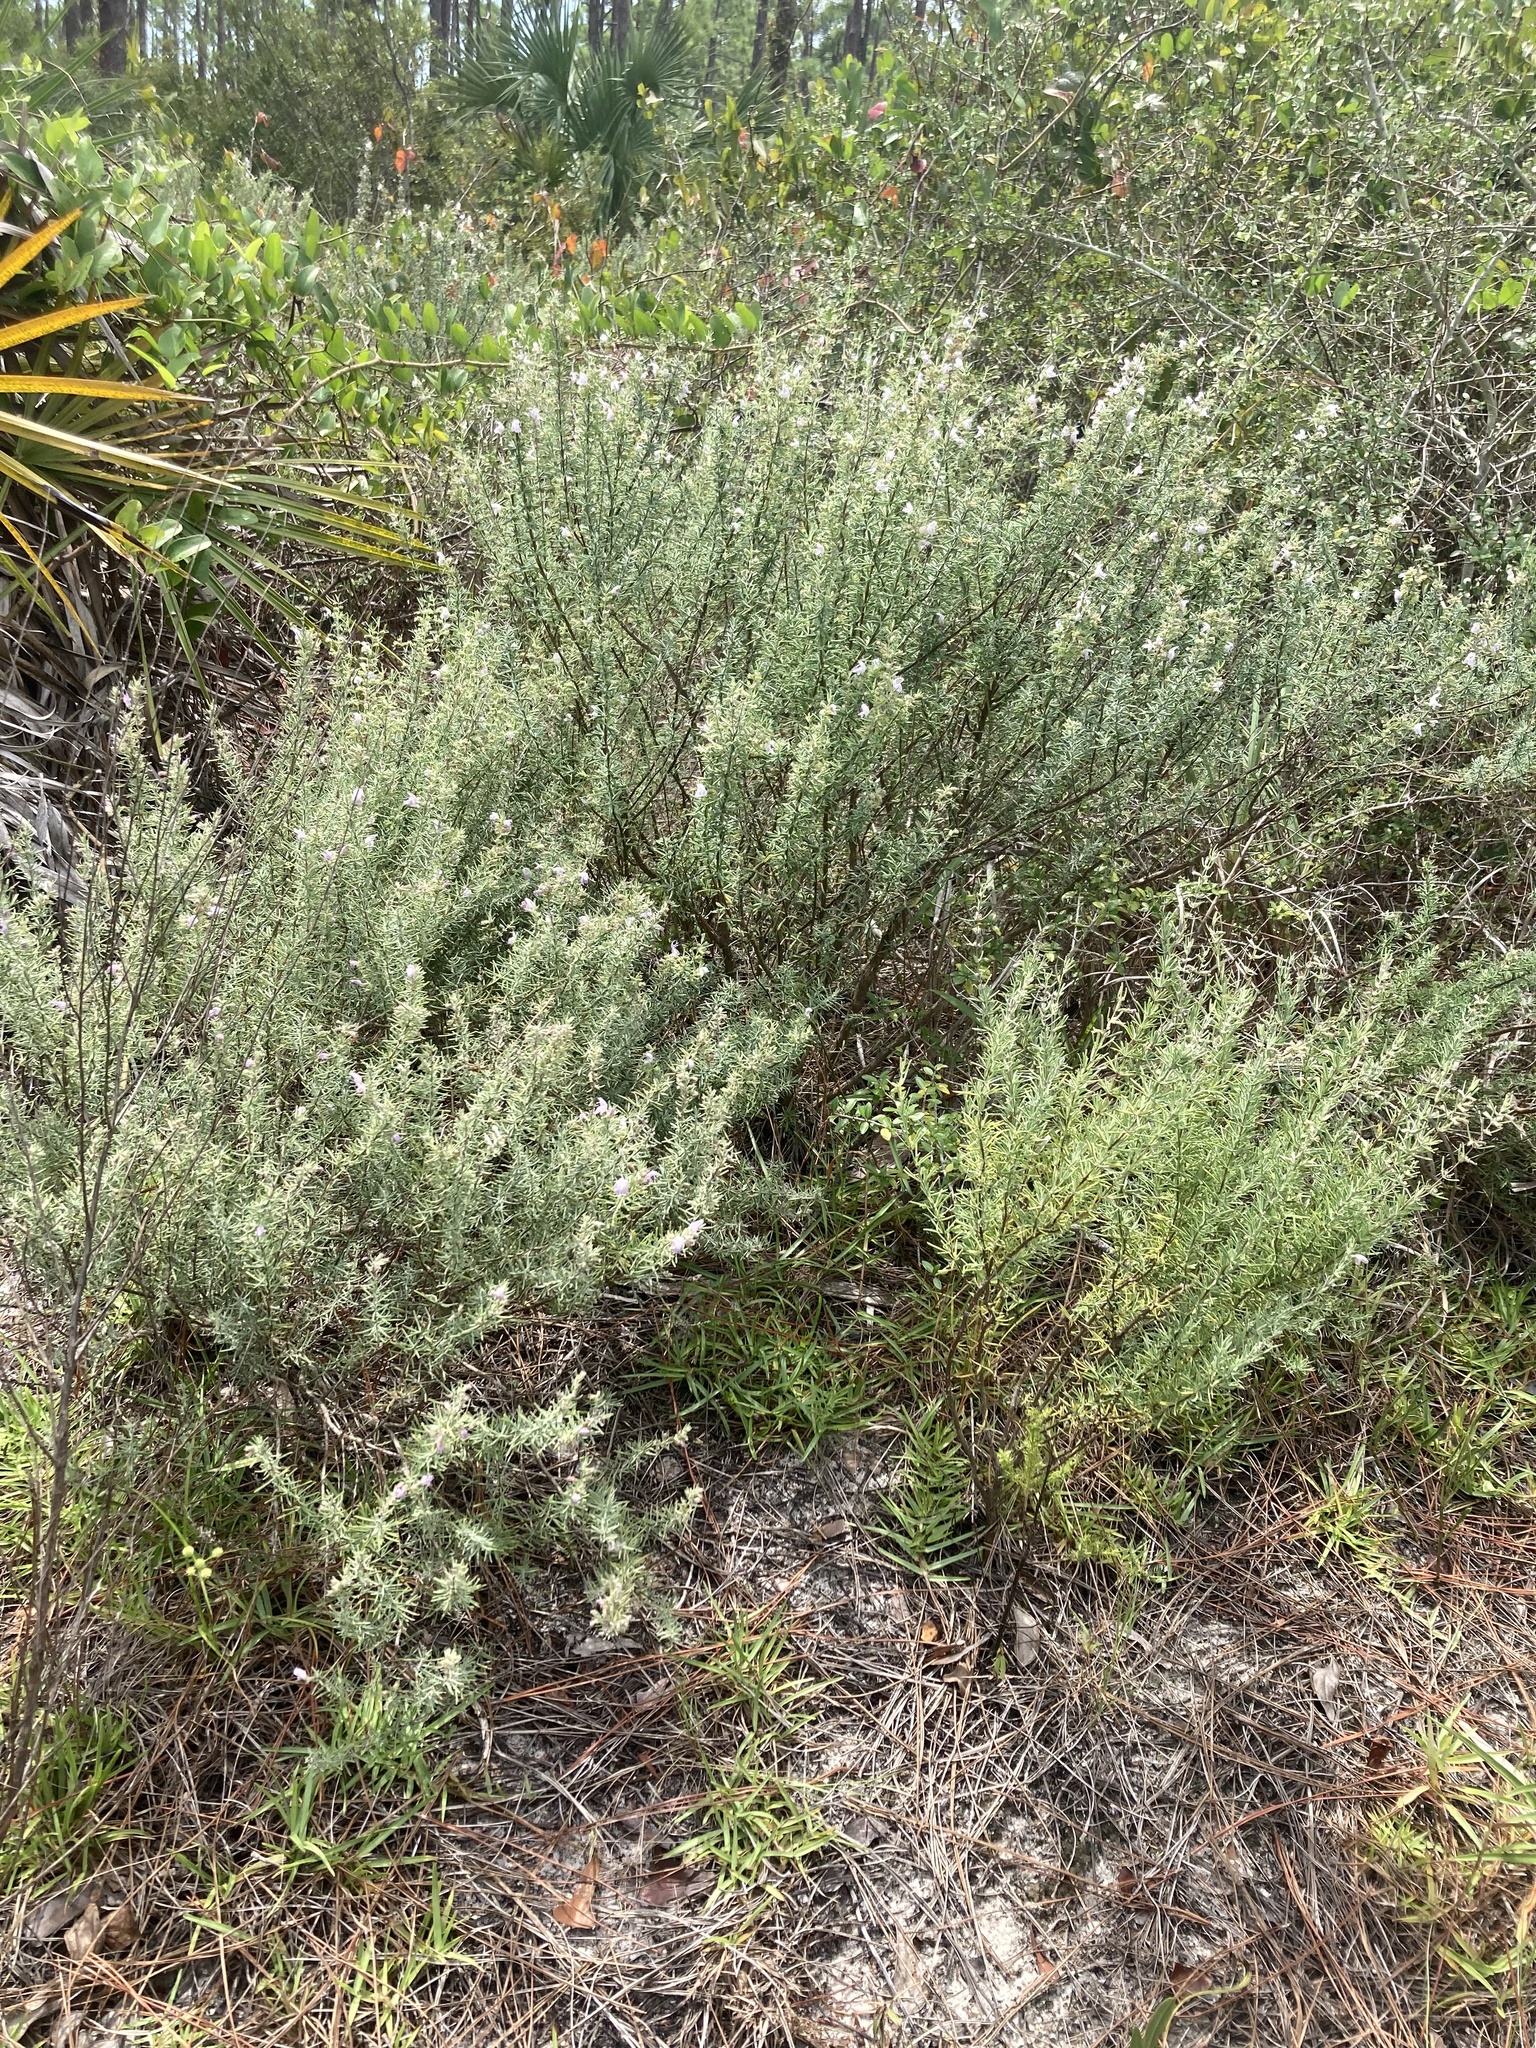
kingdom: Plantae
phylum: Tracheophyta
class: Magnoliopsida
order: Lamiales
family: Lamiaceae
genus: Conradina
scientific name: Conradina canescens
